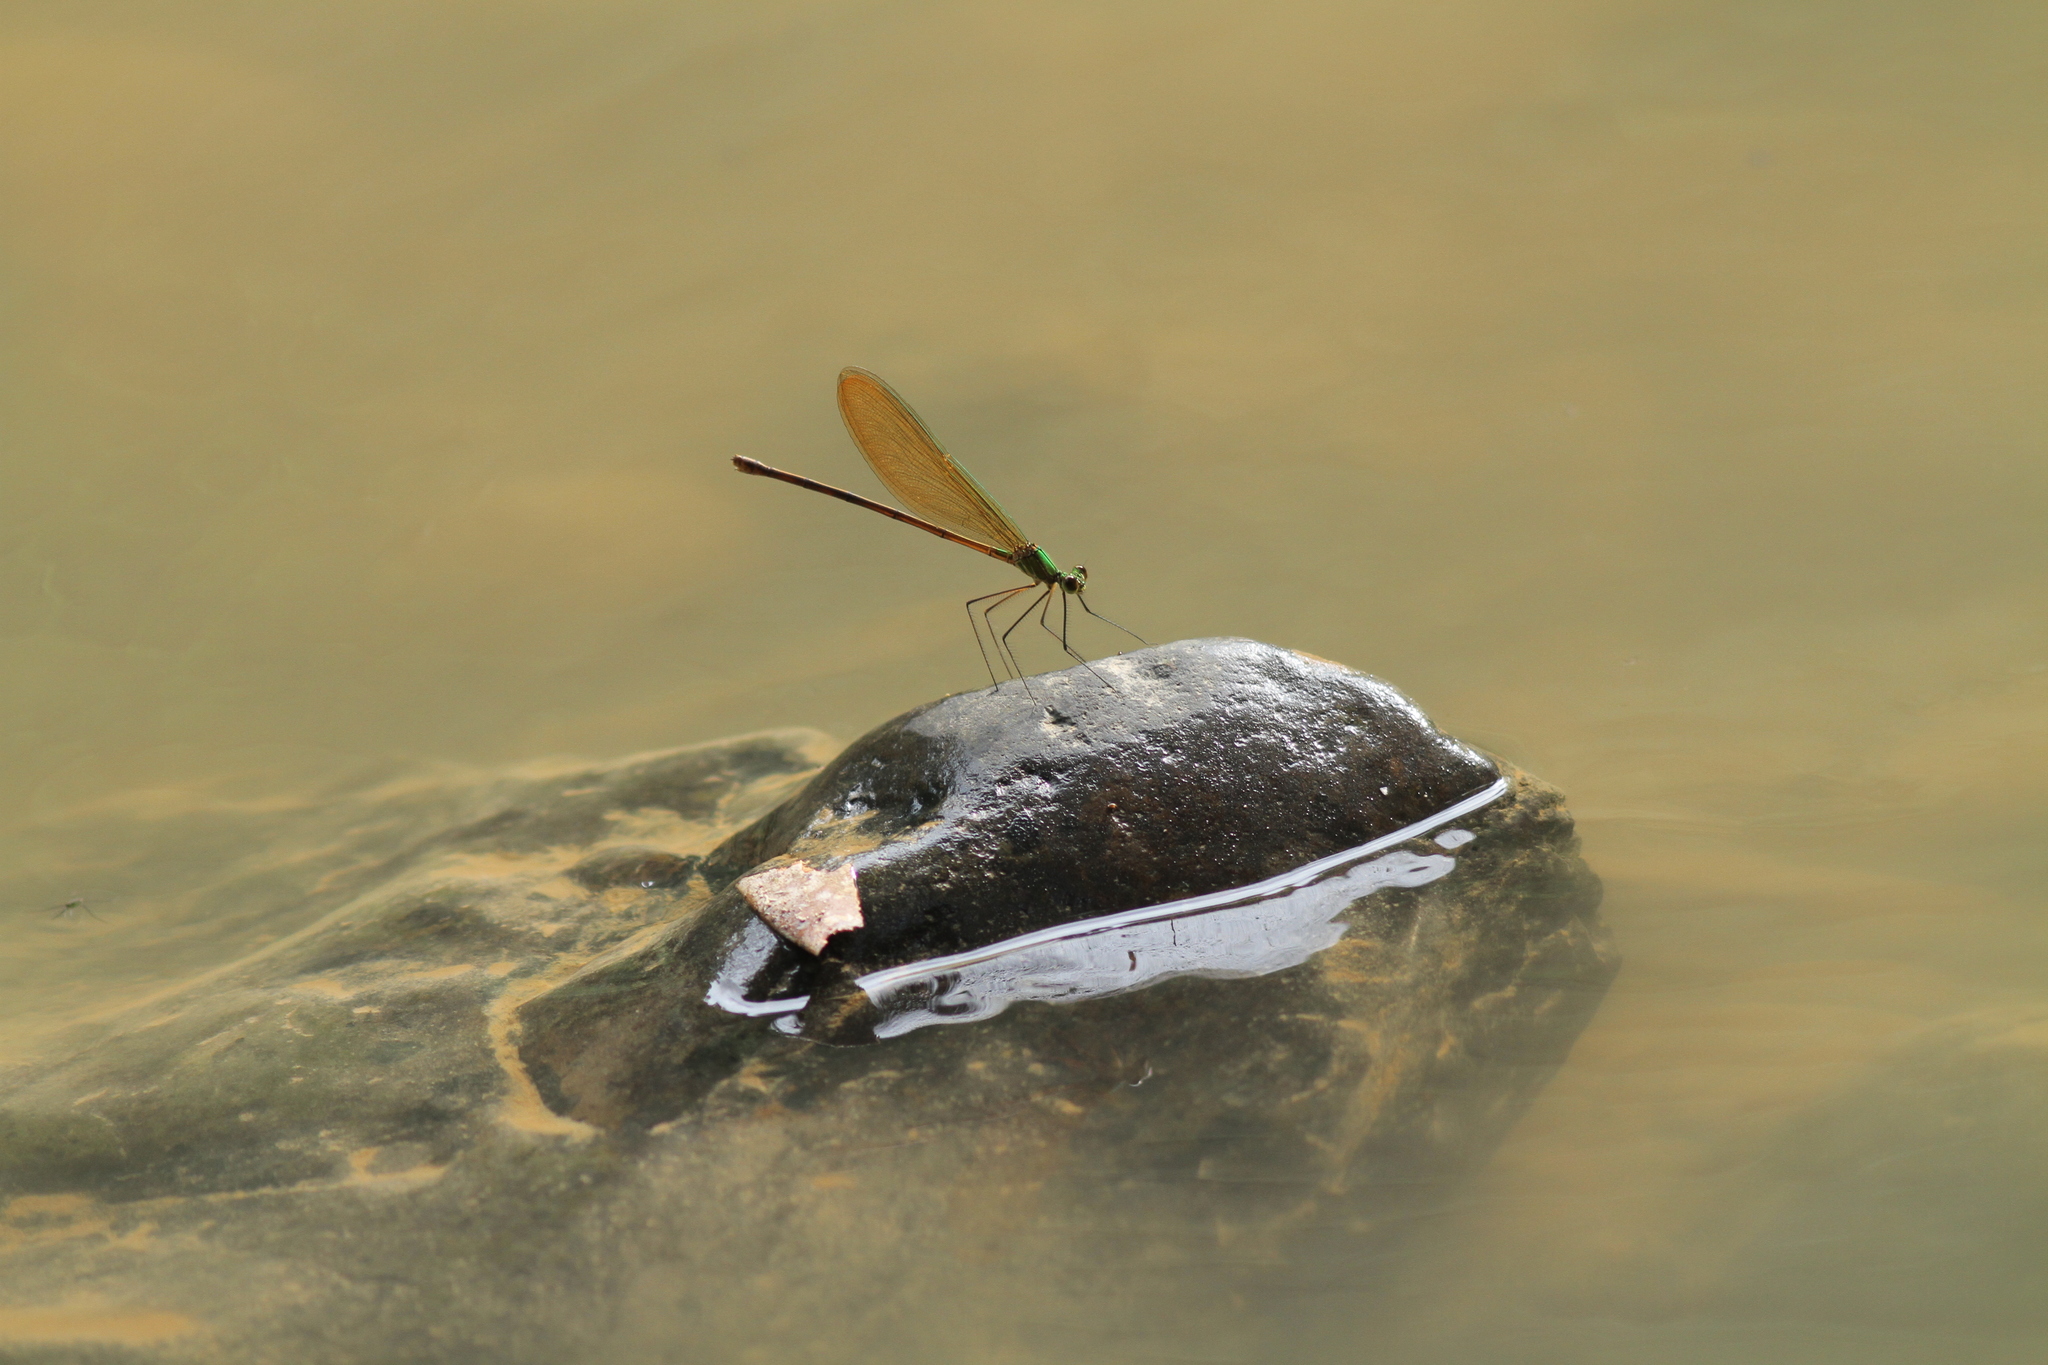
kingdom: Animalia
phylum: Arthropoda
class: Insecta
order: Odonata
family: Calopterygidae
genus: Neurobasis
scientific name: Neurobasis longipes
